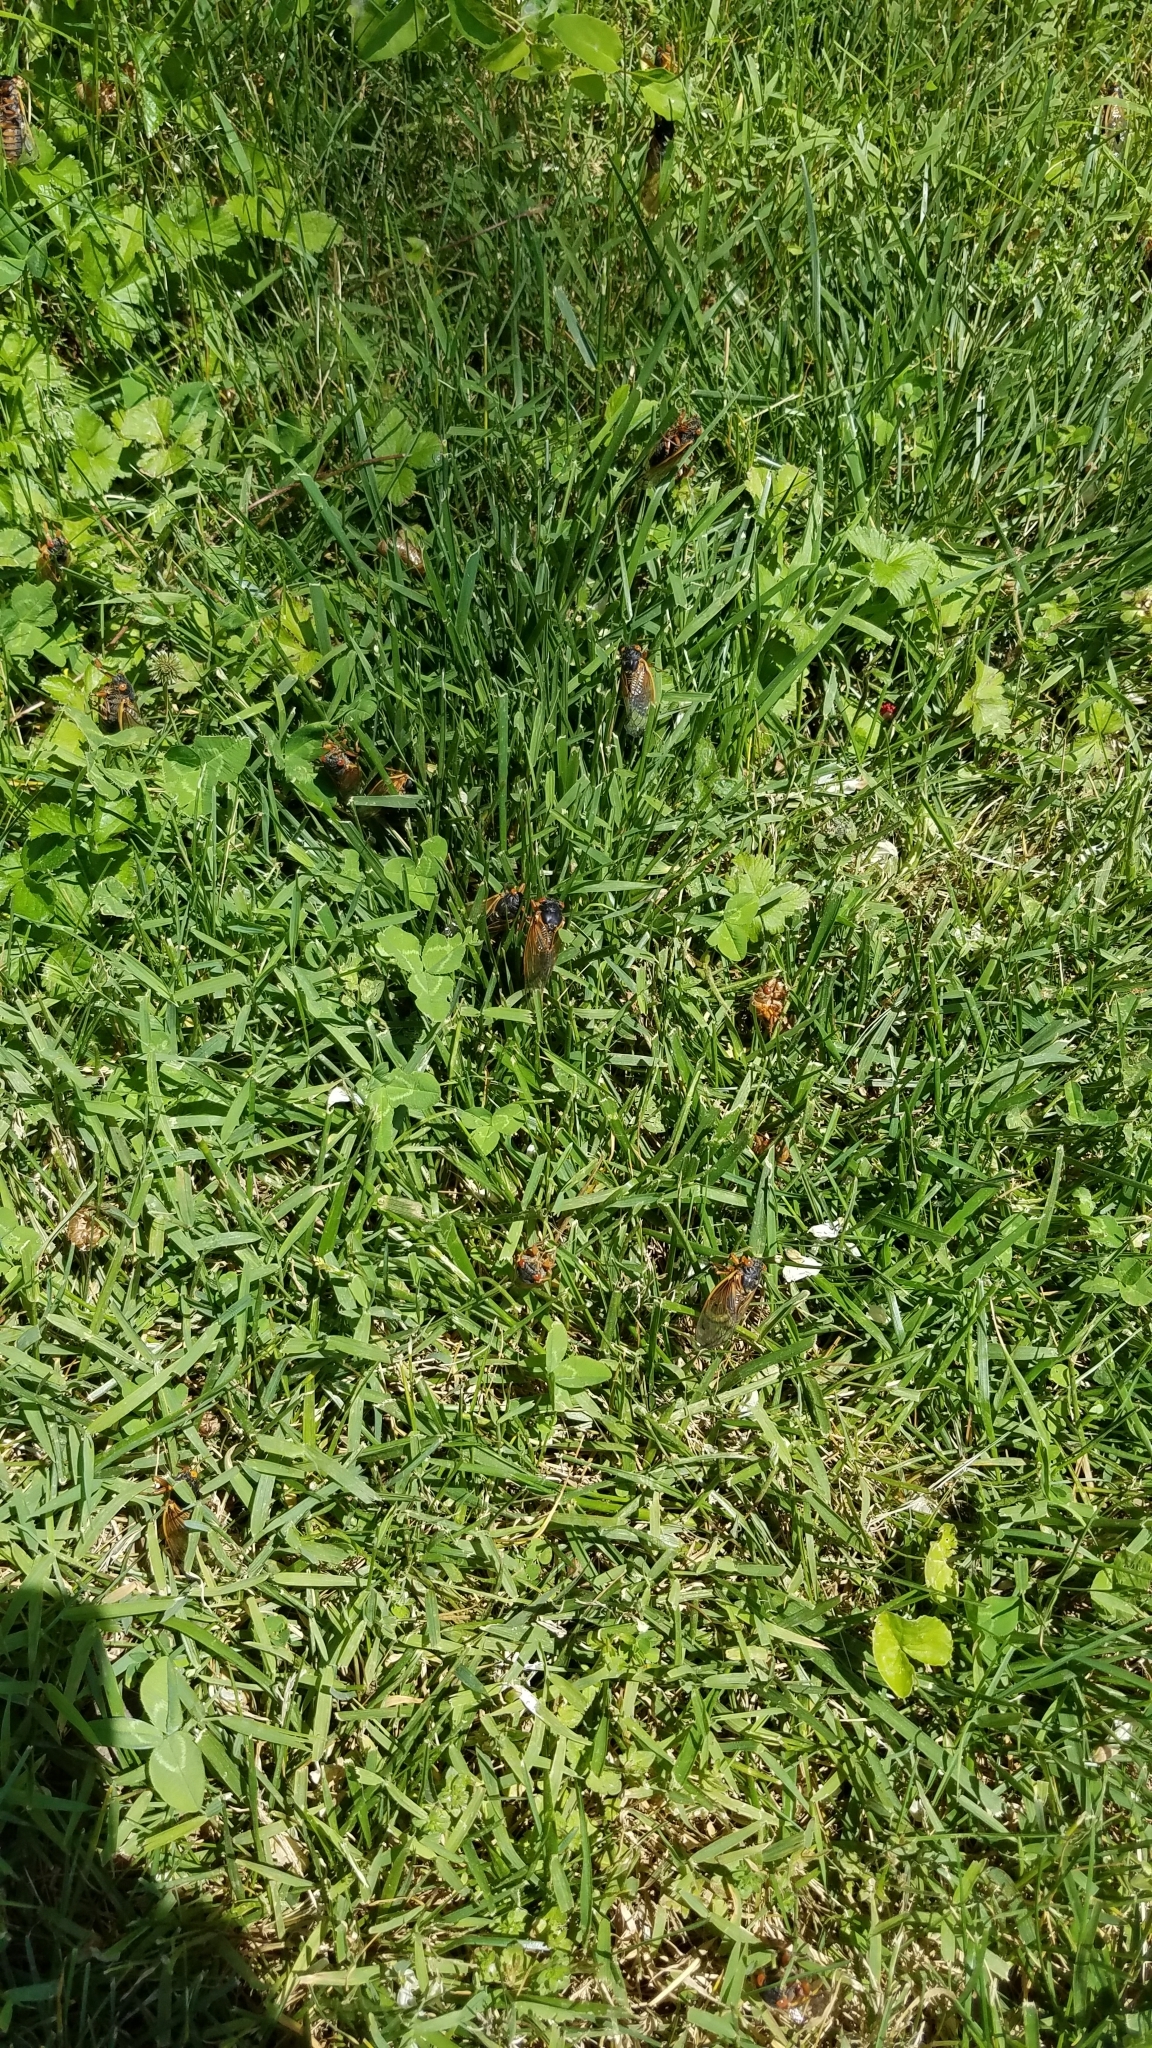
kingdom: Animalia
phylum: Arthropoda
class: Insecta
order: Hemiptera
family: Cicadidae
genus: Magicicada
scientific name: Magicicada
